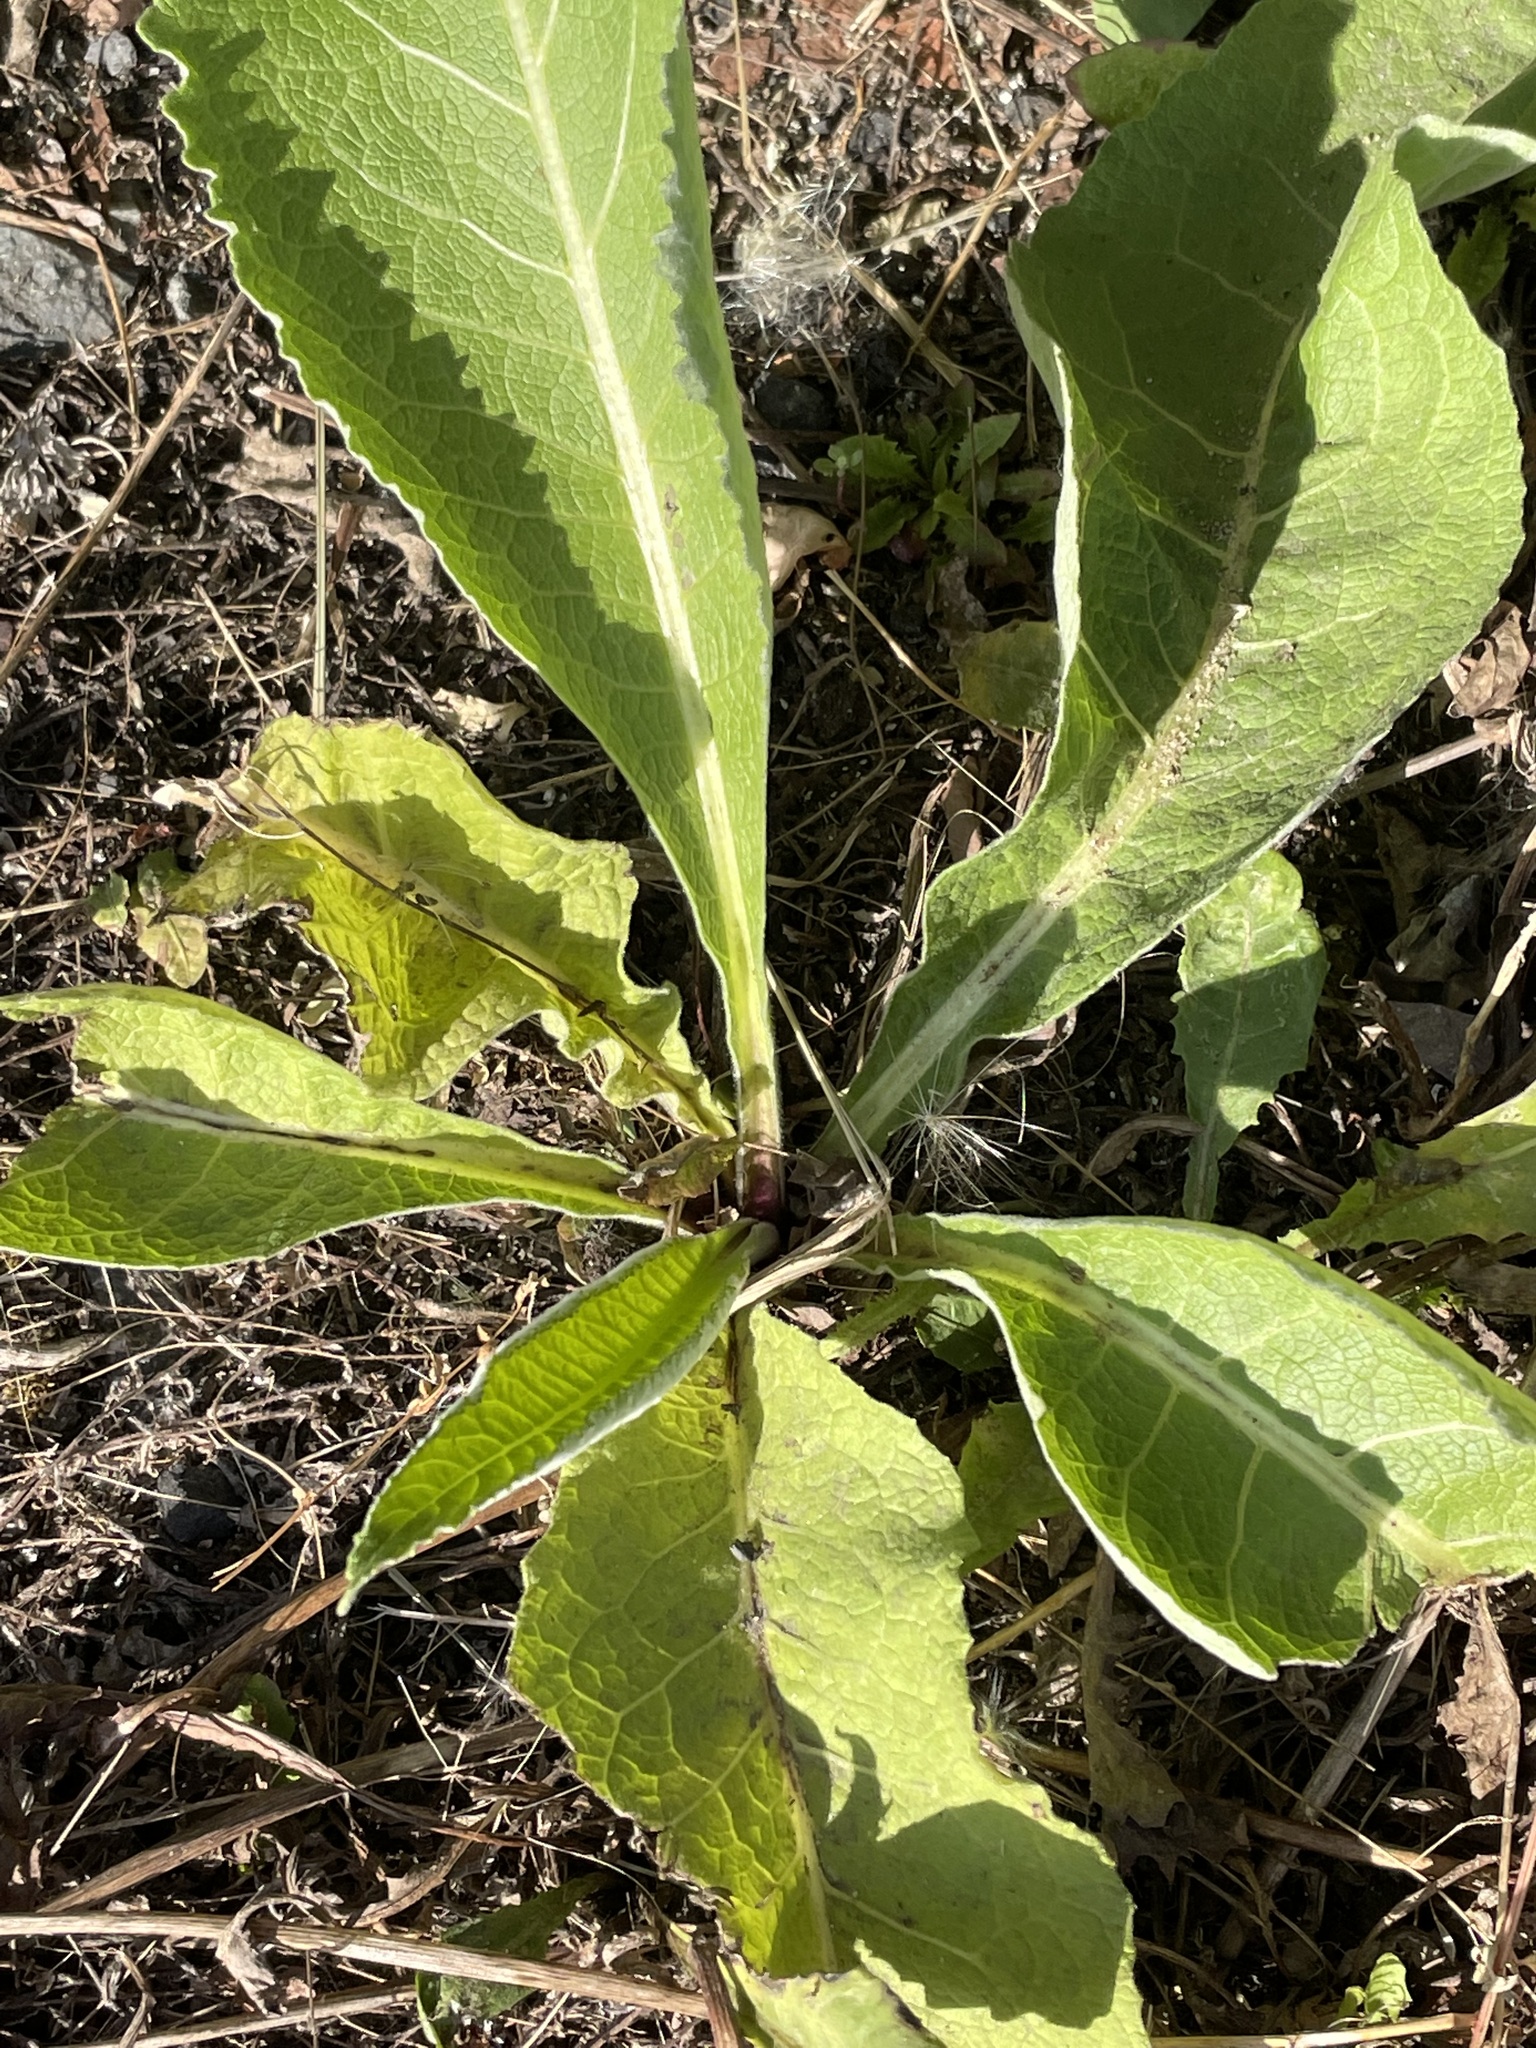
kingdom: Plantae
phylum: Tracheophyta
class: Magnoliopsida
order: Asterales
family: Asteraceae
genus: Inula
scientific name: Inula helenium
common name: Elecampane
